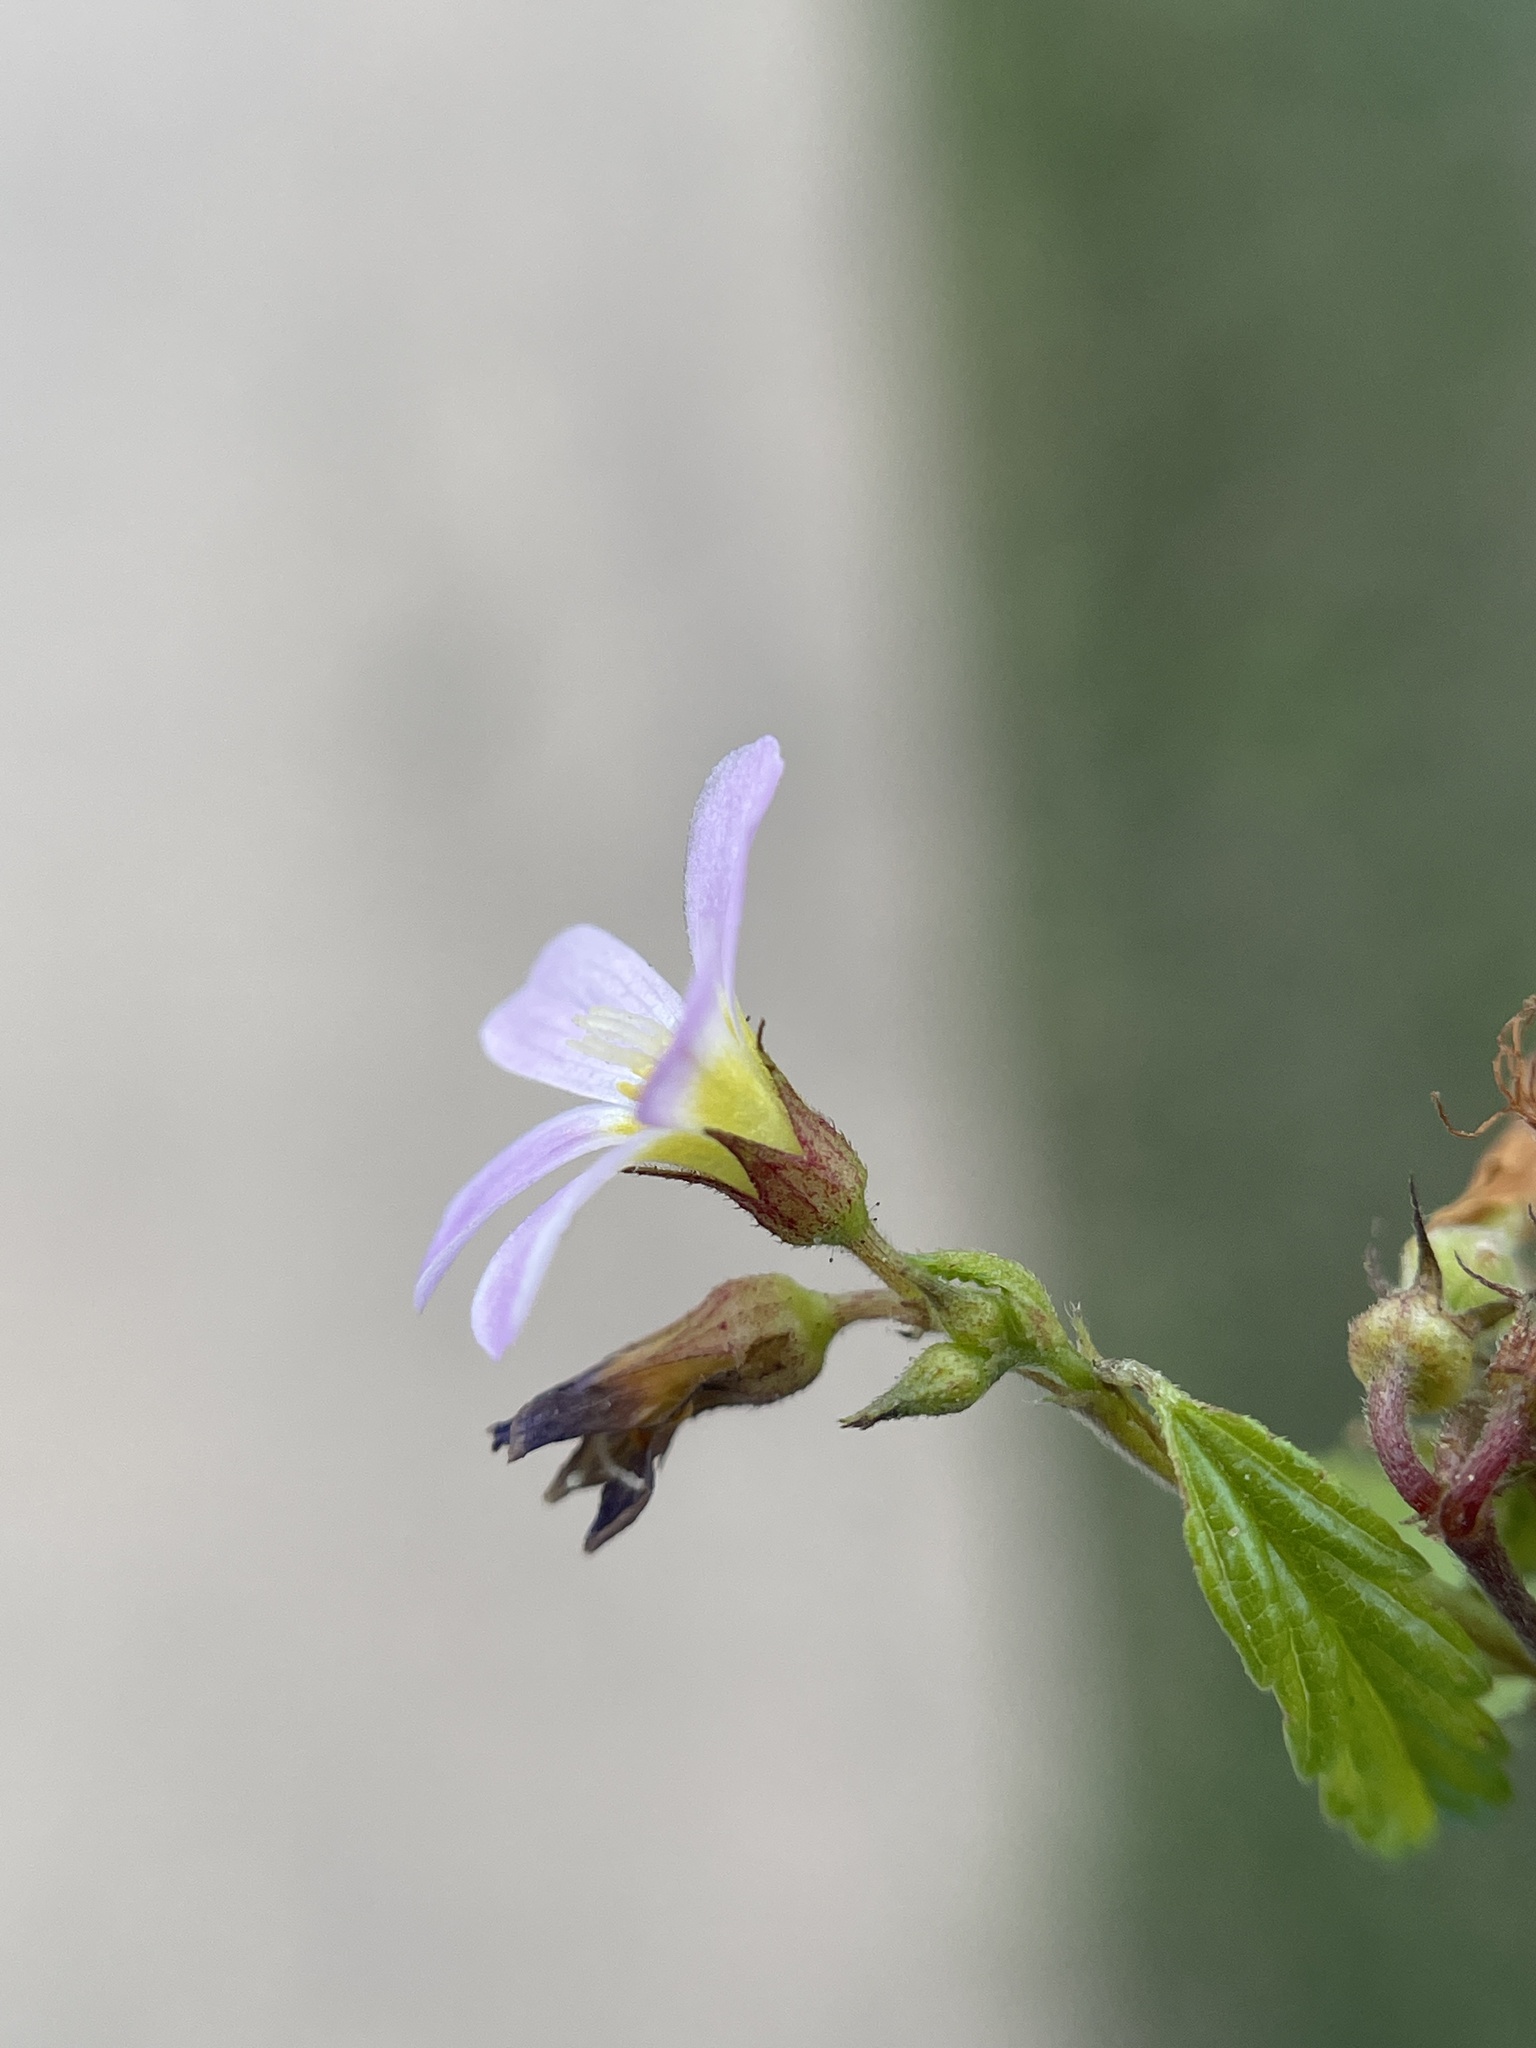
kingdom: Plantae
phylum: Tracheophyta
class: Magnoliopsida
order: Malvales
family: Malvaceae
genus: Melochia
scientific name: Melochia pyramidata
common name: Pyramidflower
